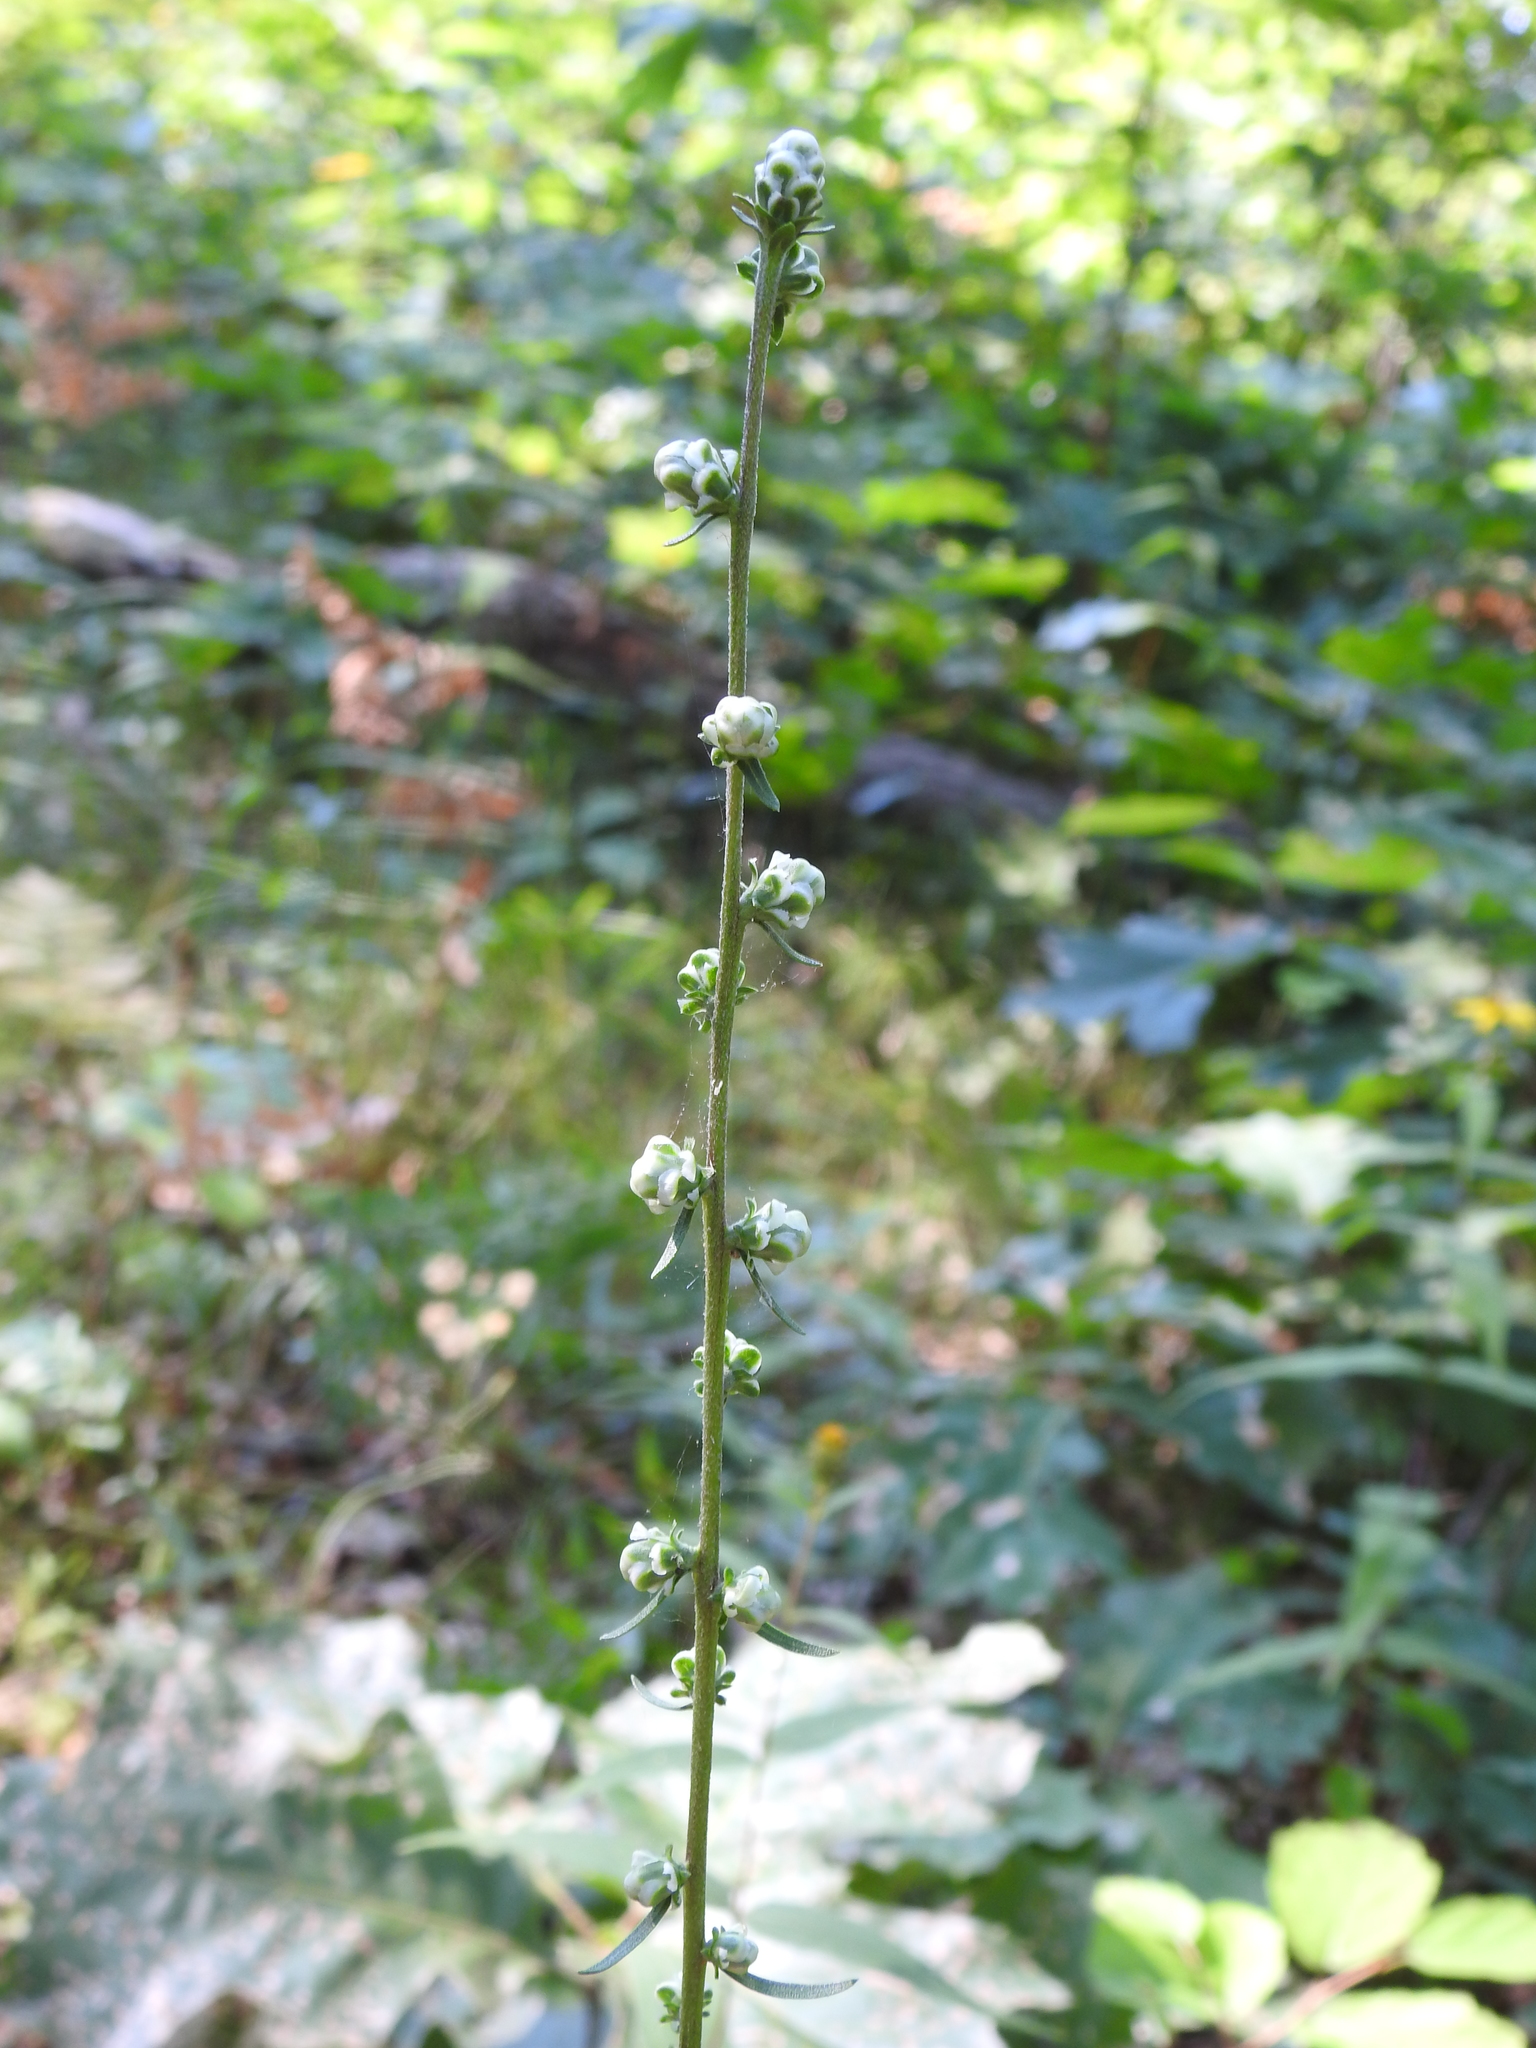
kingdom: Plantae
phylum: Tracheophyta
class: Magnoliopsida
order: Asterales
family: Asteraceae
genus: Liatris
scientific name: Liatris aspera
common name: Lacerate blazing-star
